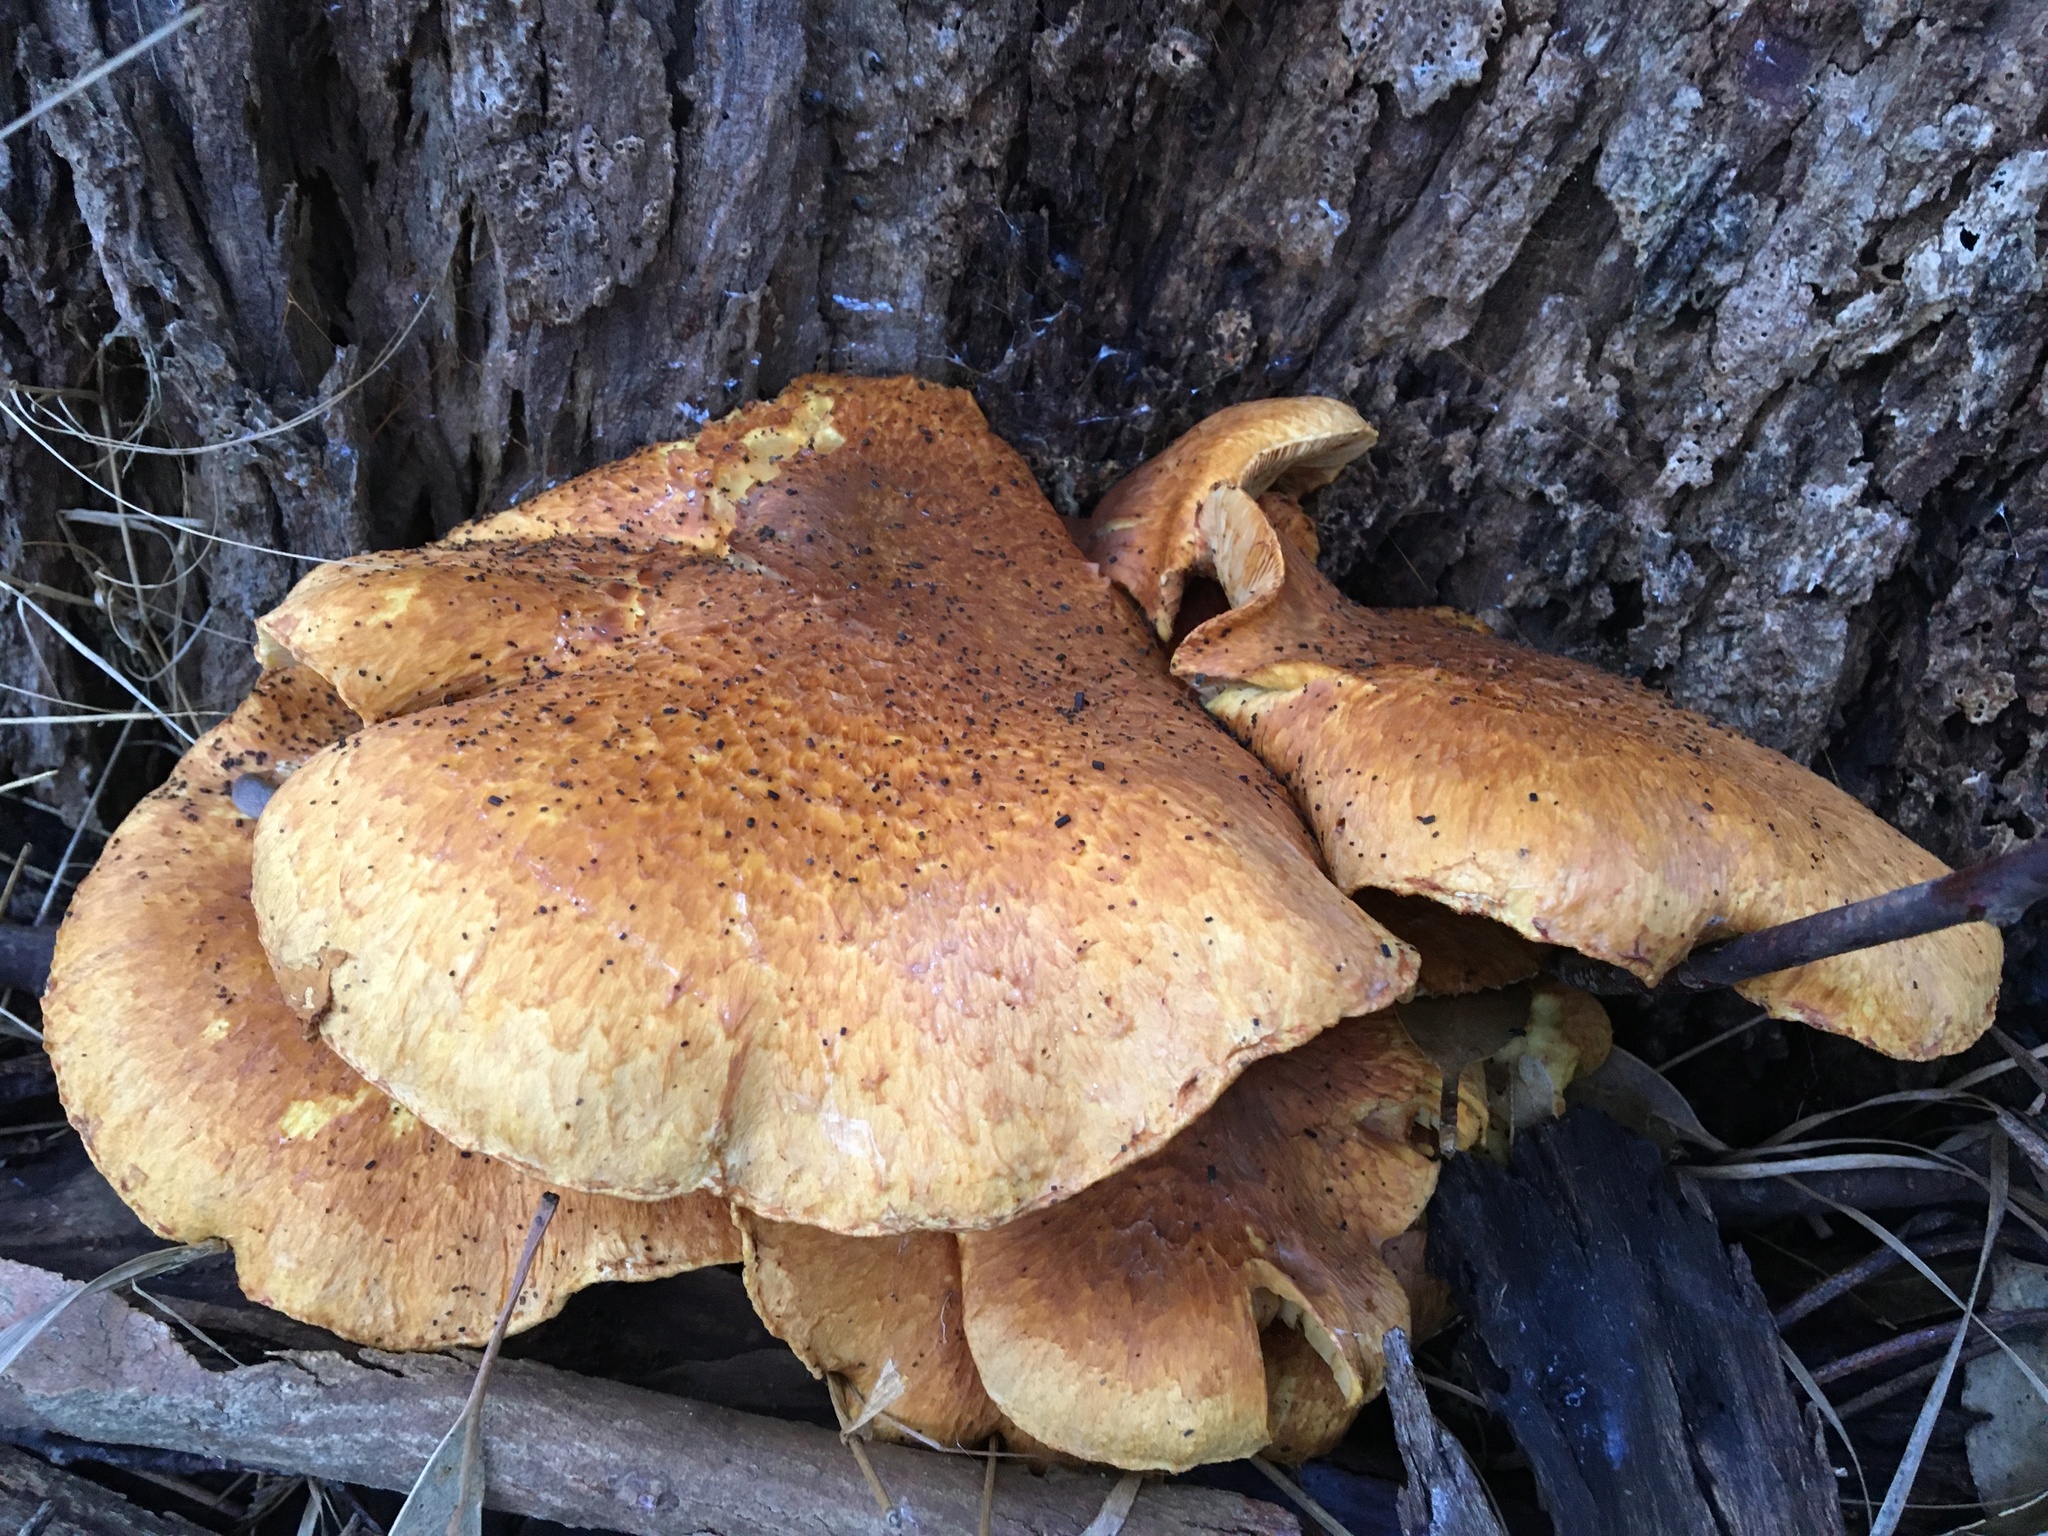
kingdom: Fungi
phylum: Basidiomycota
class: Agaricomycetes
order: Agaricales
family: Hymenogastraceae
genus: Gymnopilus
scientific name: Gymnopilus junonius
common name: Spectacular rustgill
